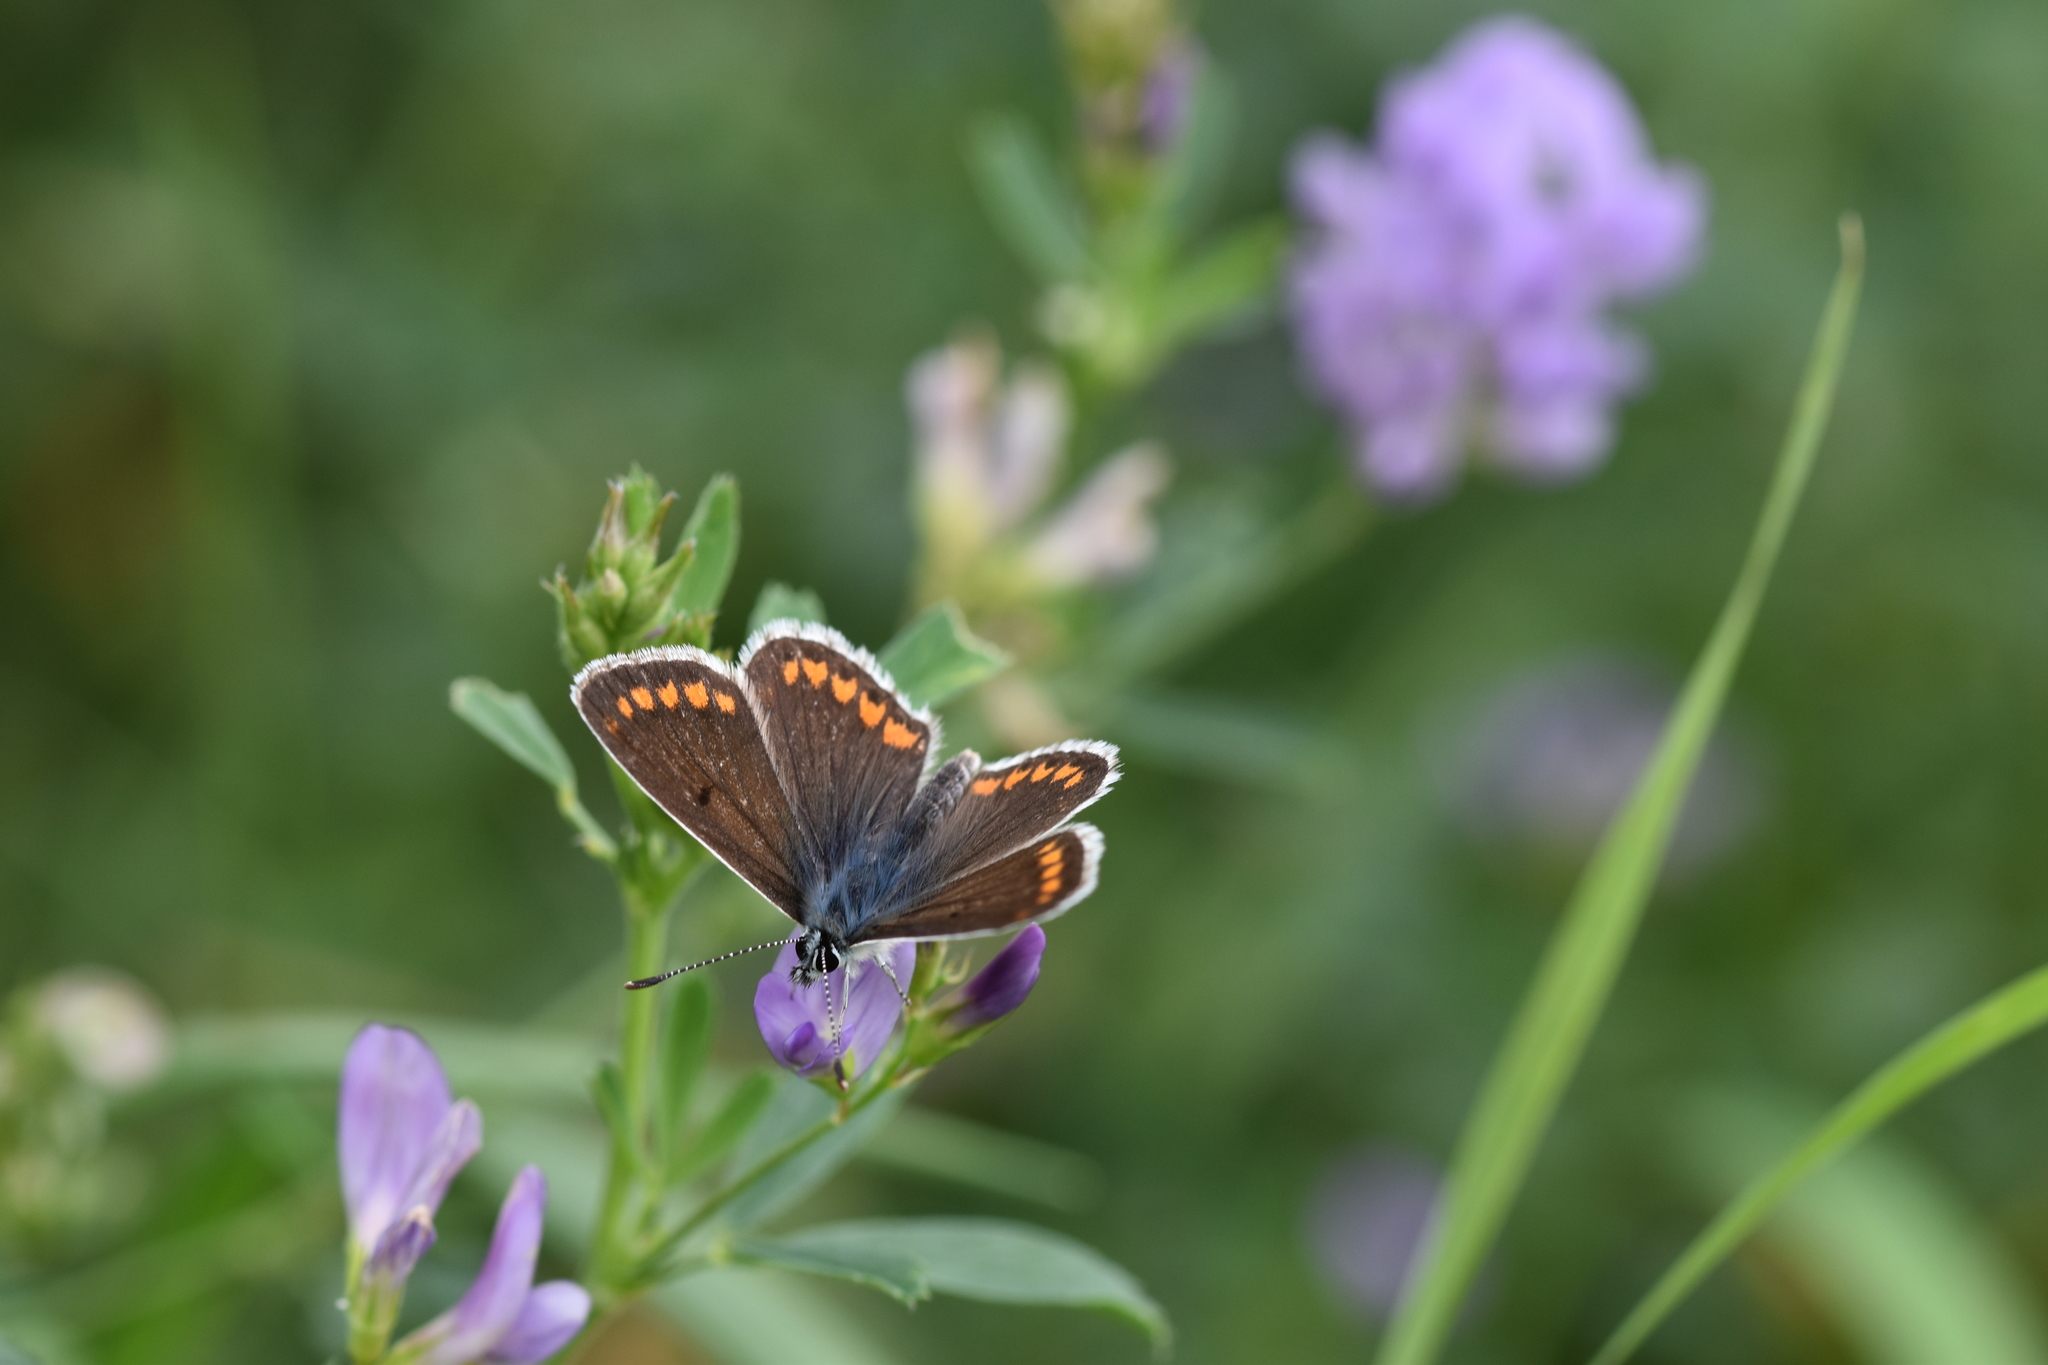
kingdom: Animalia
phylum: Arthropoda
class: Insecta
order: Lepidoptera
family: Lycaenidae
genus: Aricia
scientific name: Aricia agestis
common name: Brown argus
